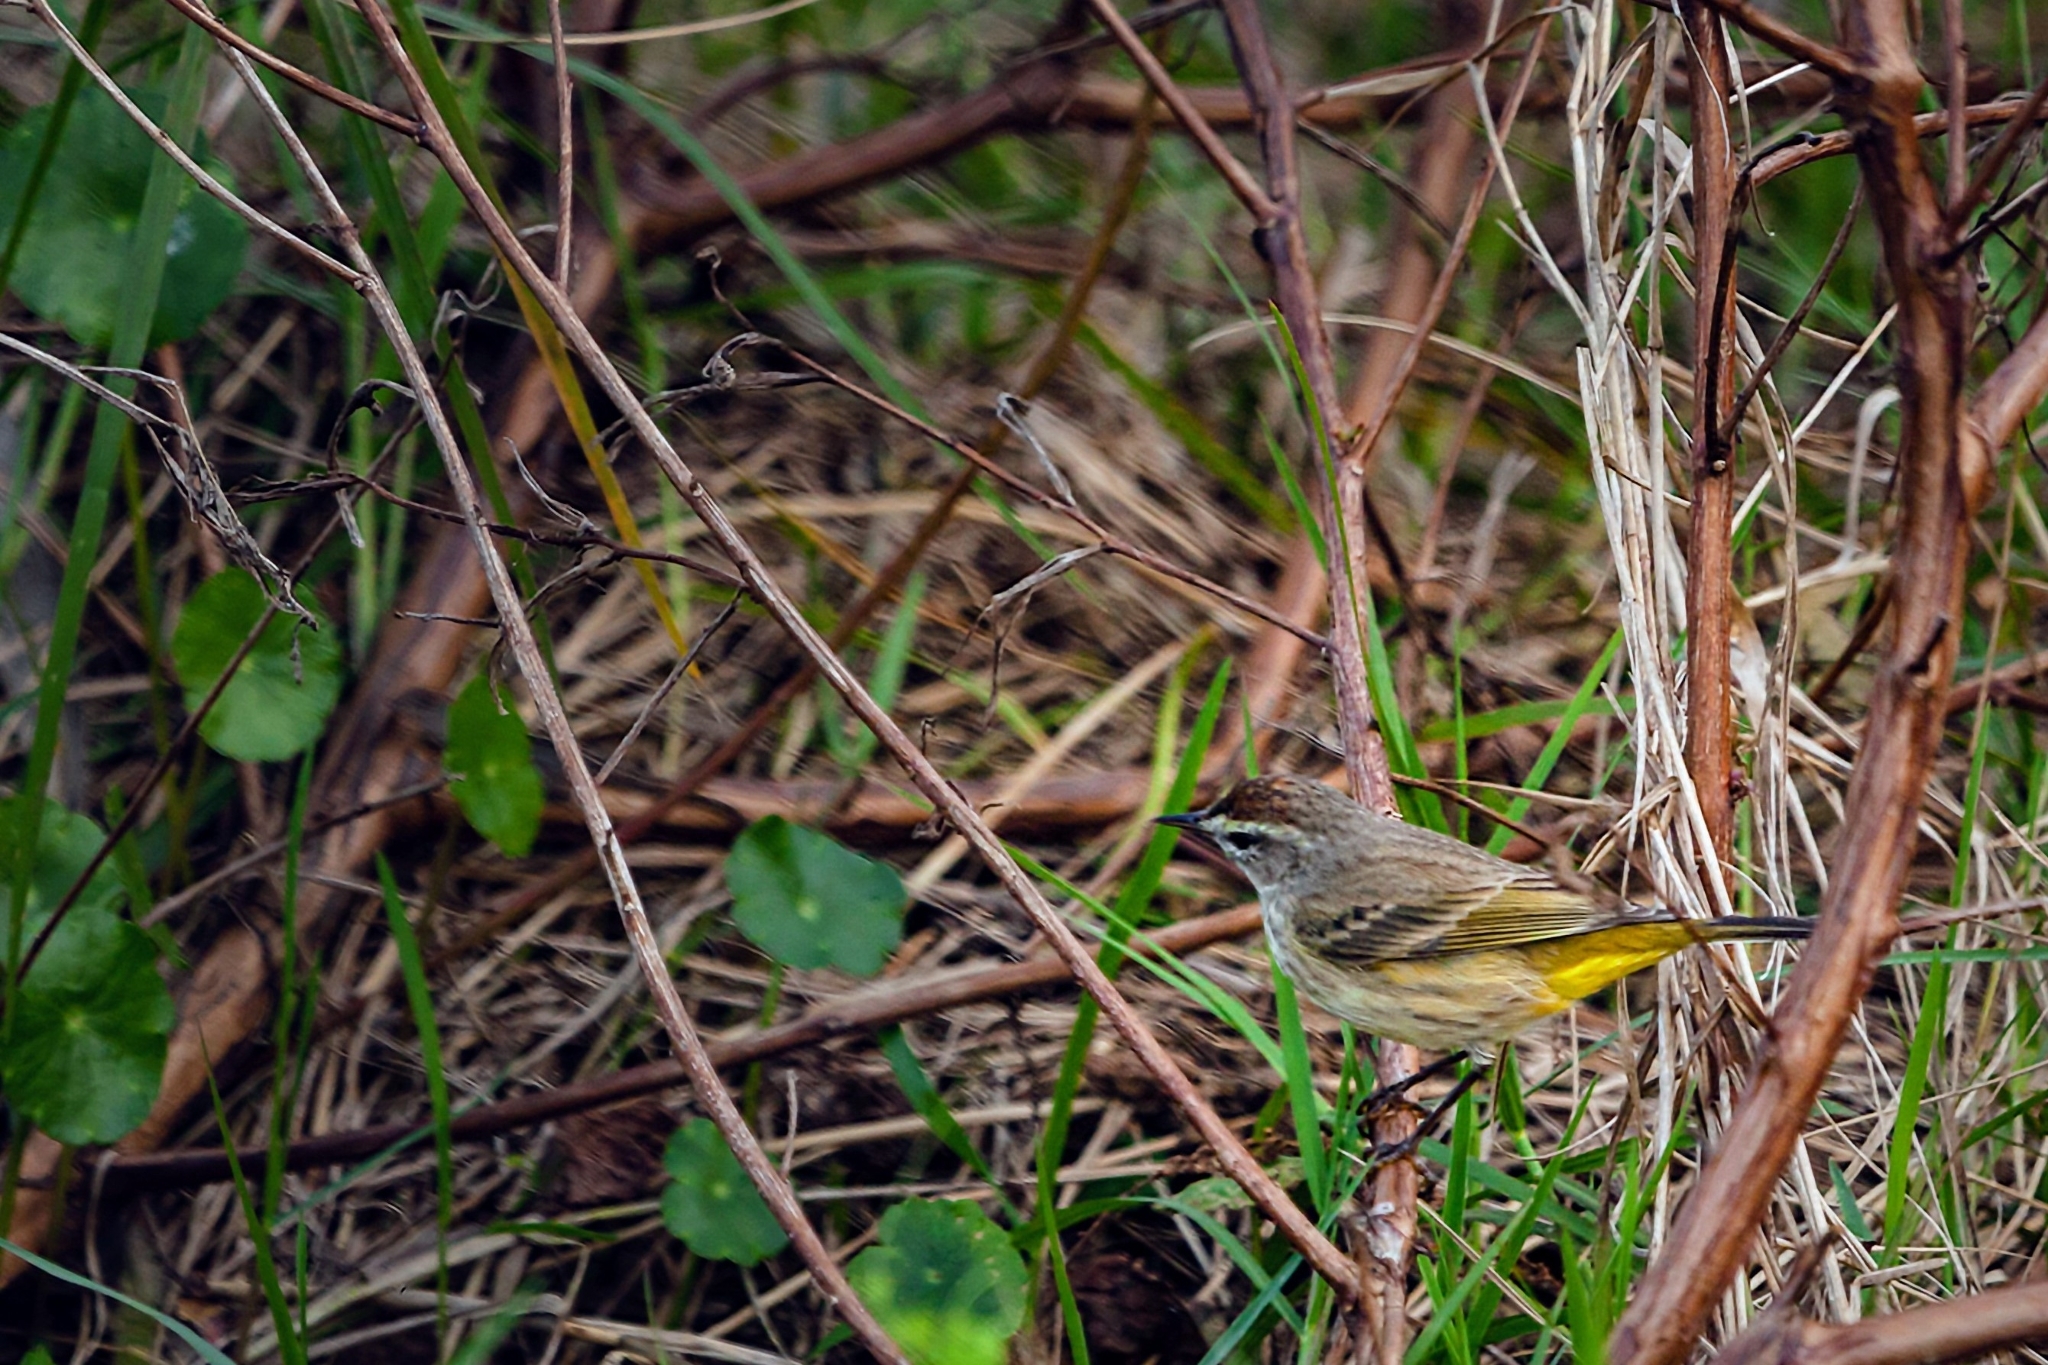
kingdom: Animalia
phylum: Chordata
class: Aves
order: Passeriformes
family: Parulidae
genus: Setophaga
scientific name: Setophaga palmarum
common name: Palm warbler
